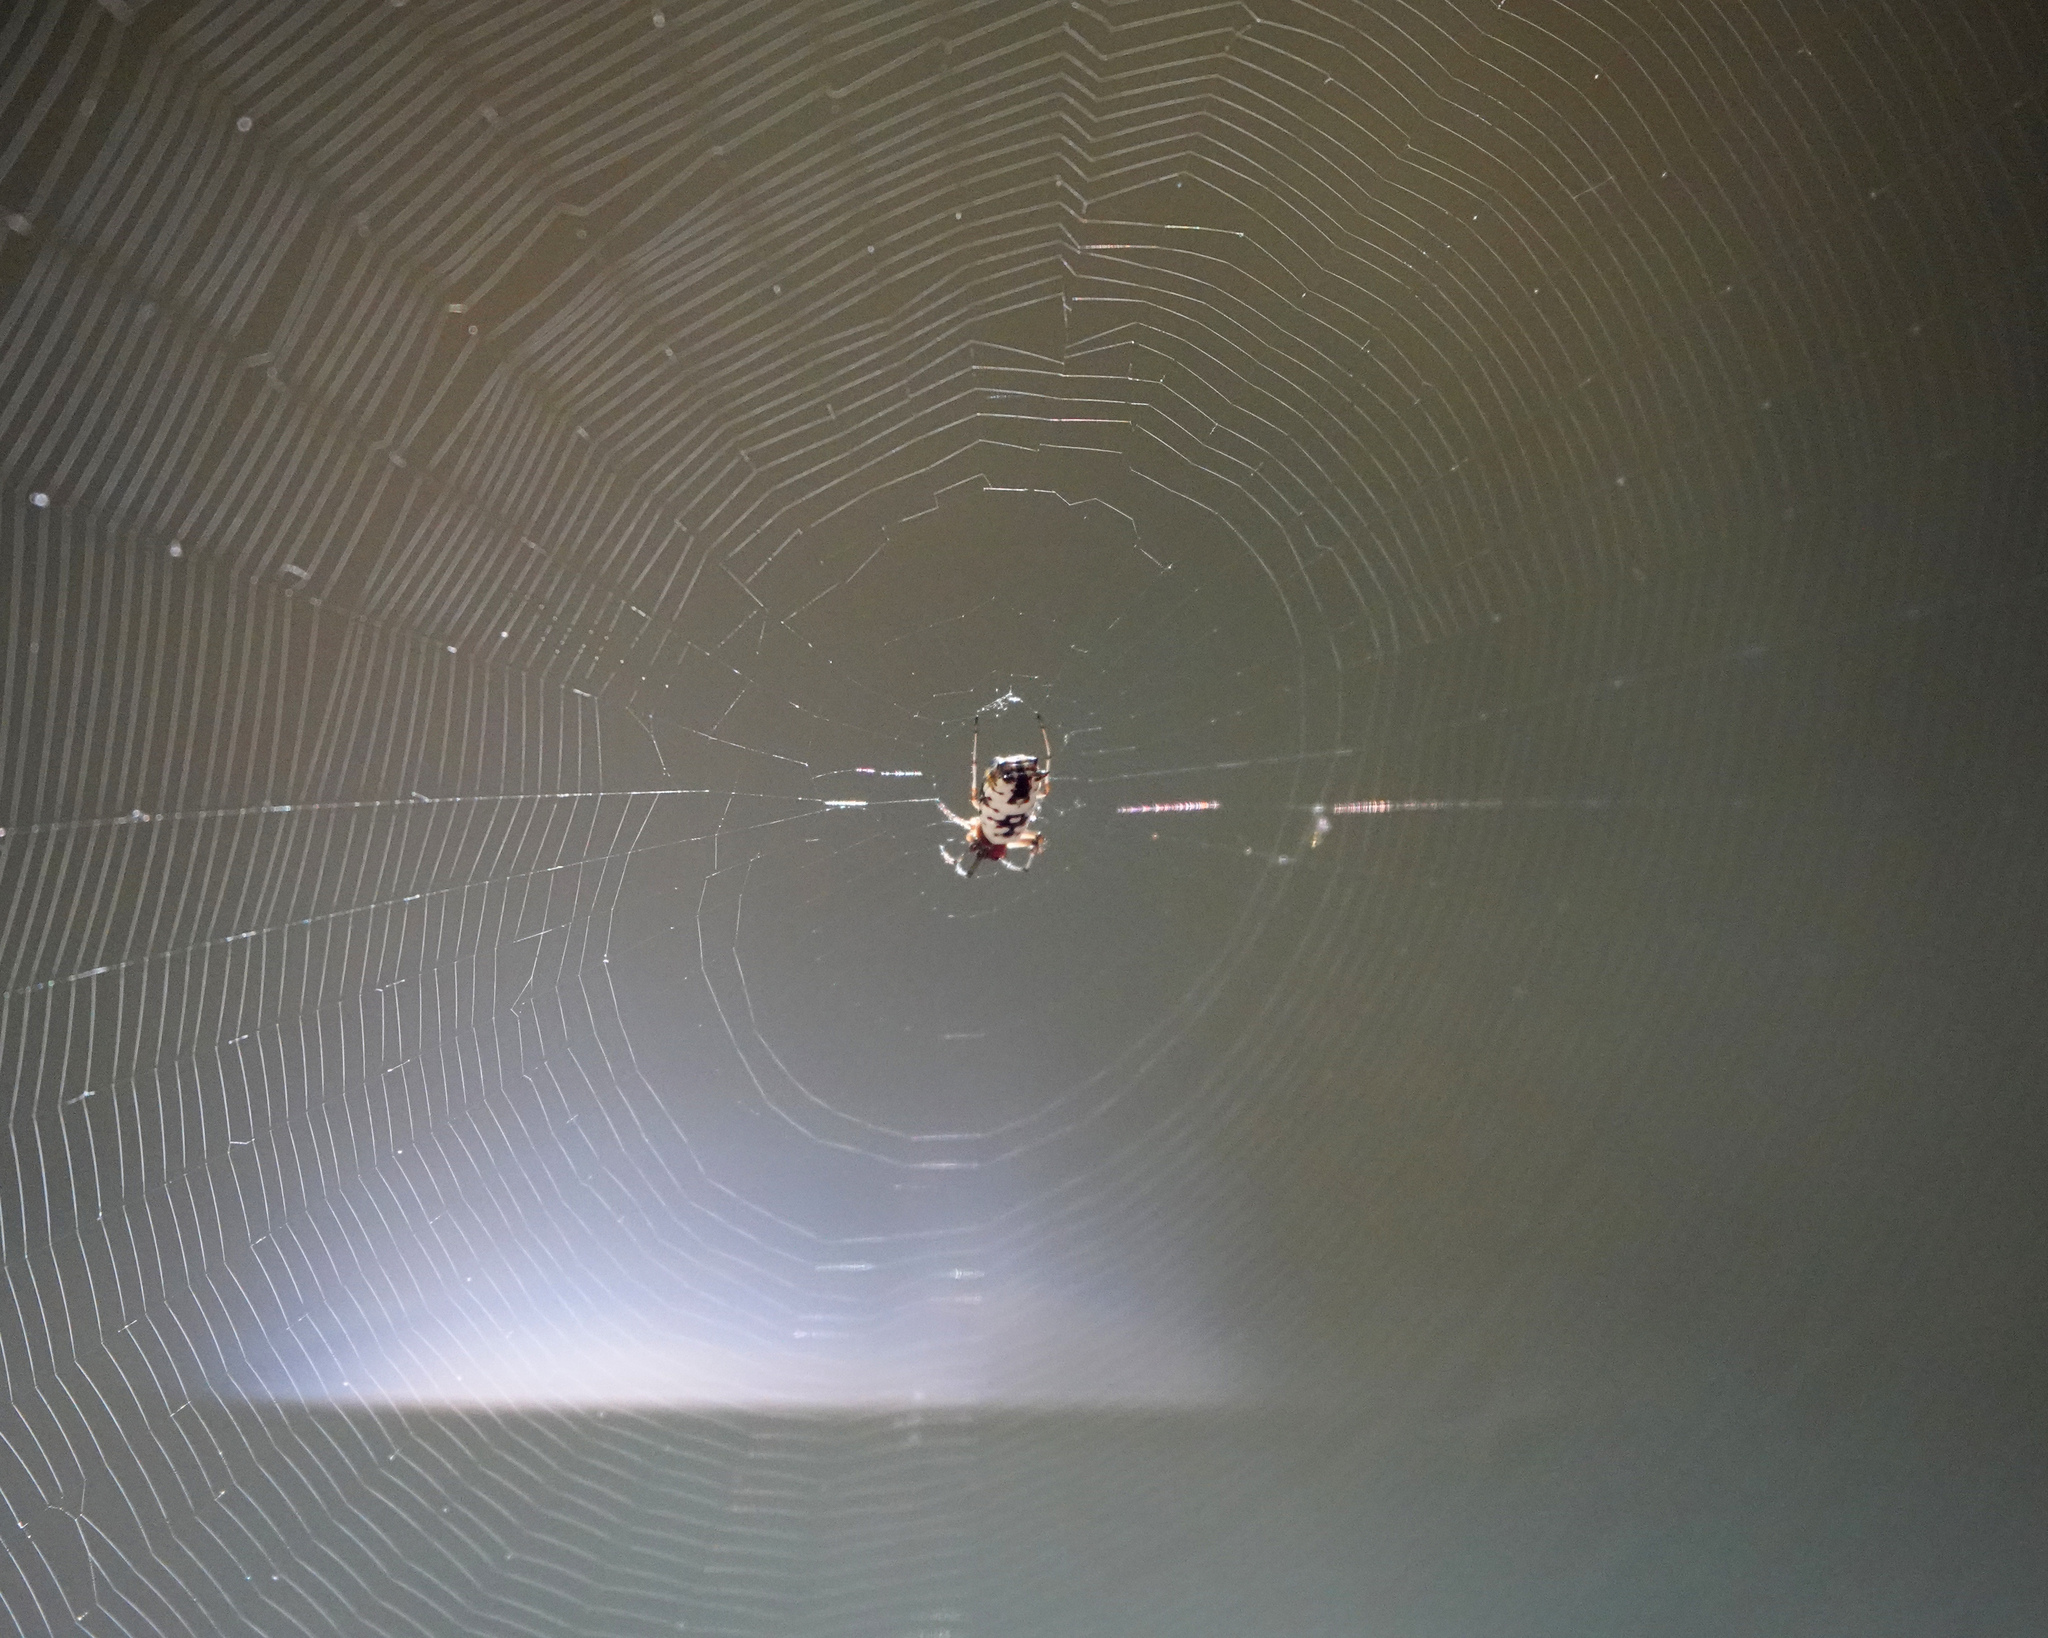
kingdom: Animalia
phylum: Arthropoda
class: Arachnida
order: Araneae
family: Araneidae
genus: Micrathena
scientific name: Micrathena mitrata
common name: Orb weavers
